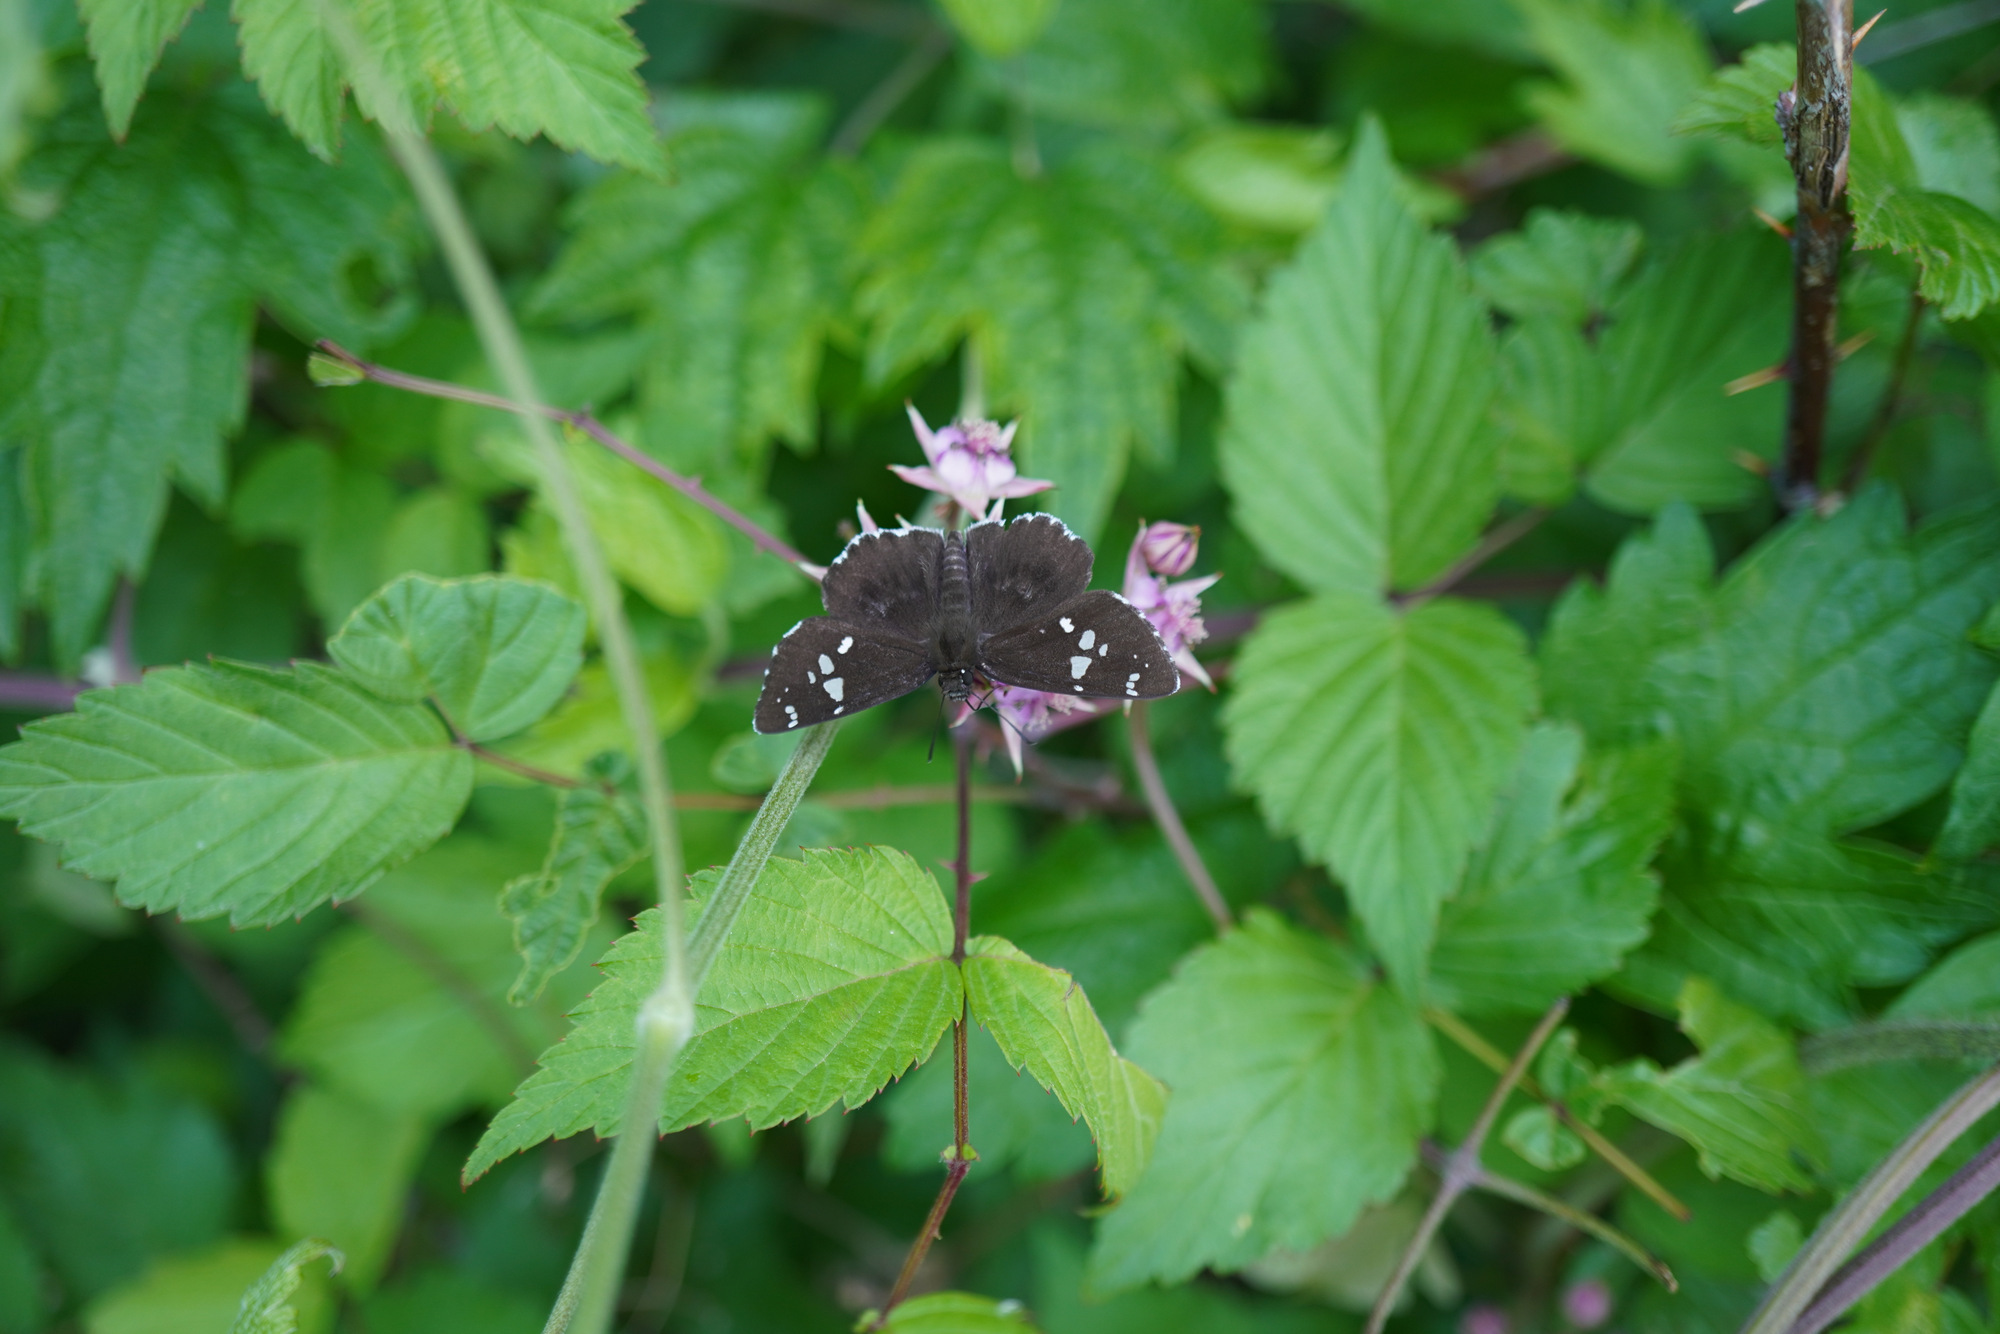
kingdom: Animalia
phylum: Arthropoda
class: Insecta
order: Lepidoptera
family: Hesperiidae
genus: Daimio
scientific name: Daimio tethys
